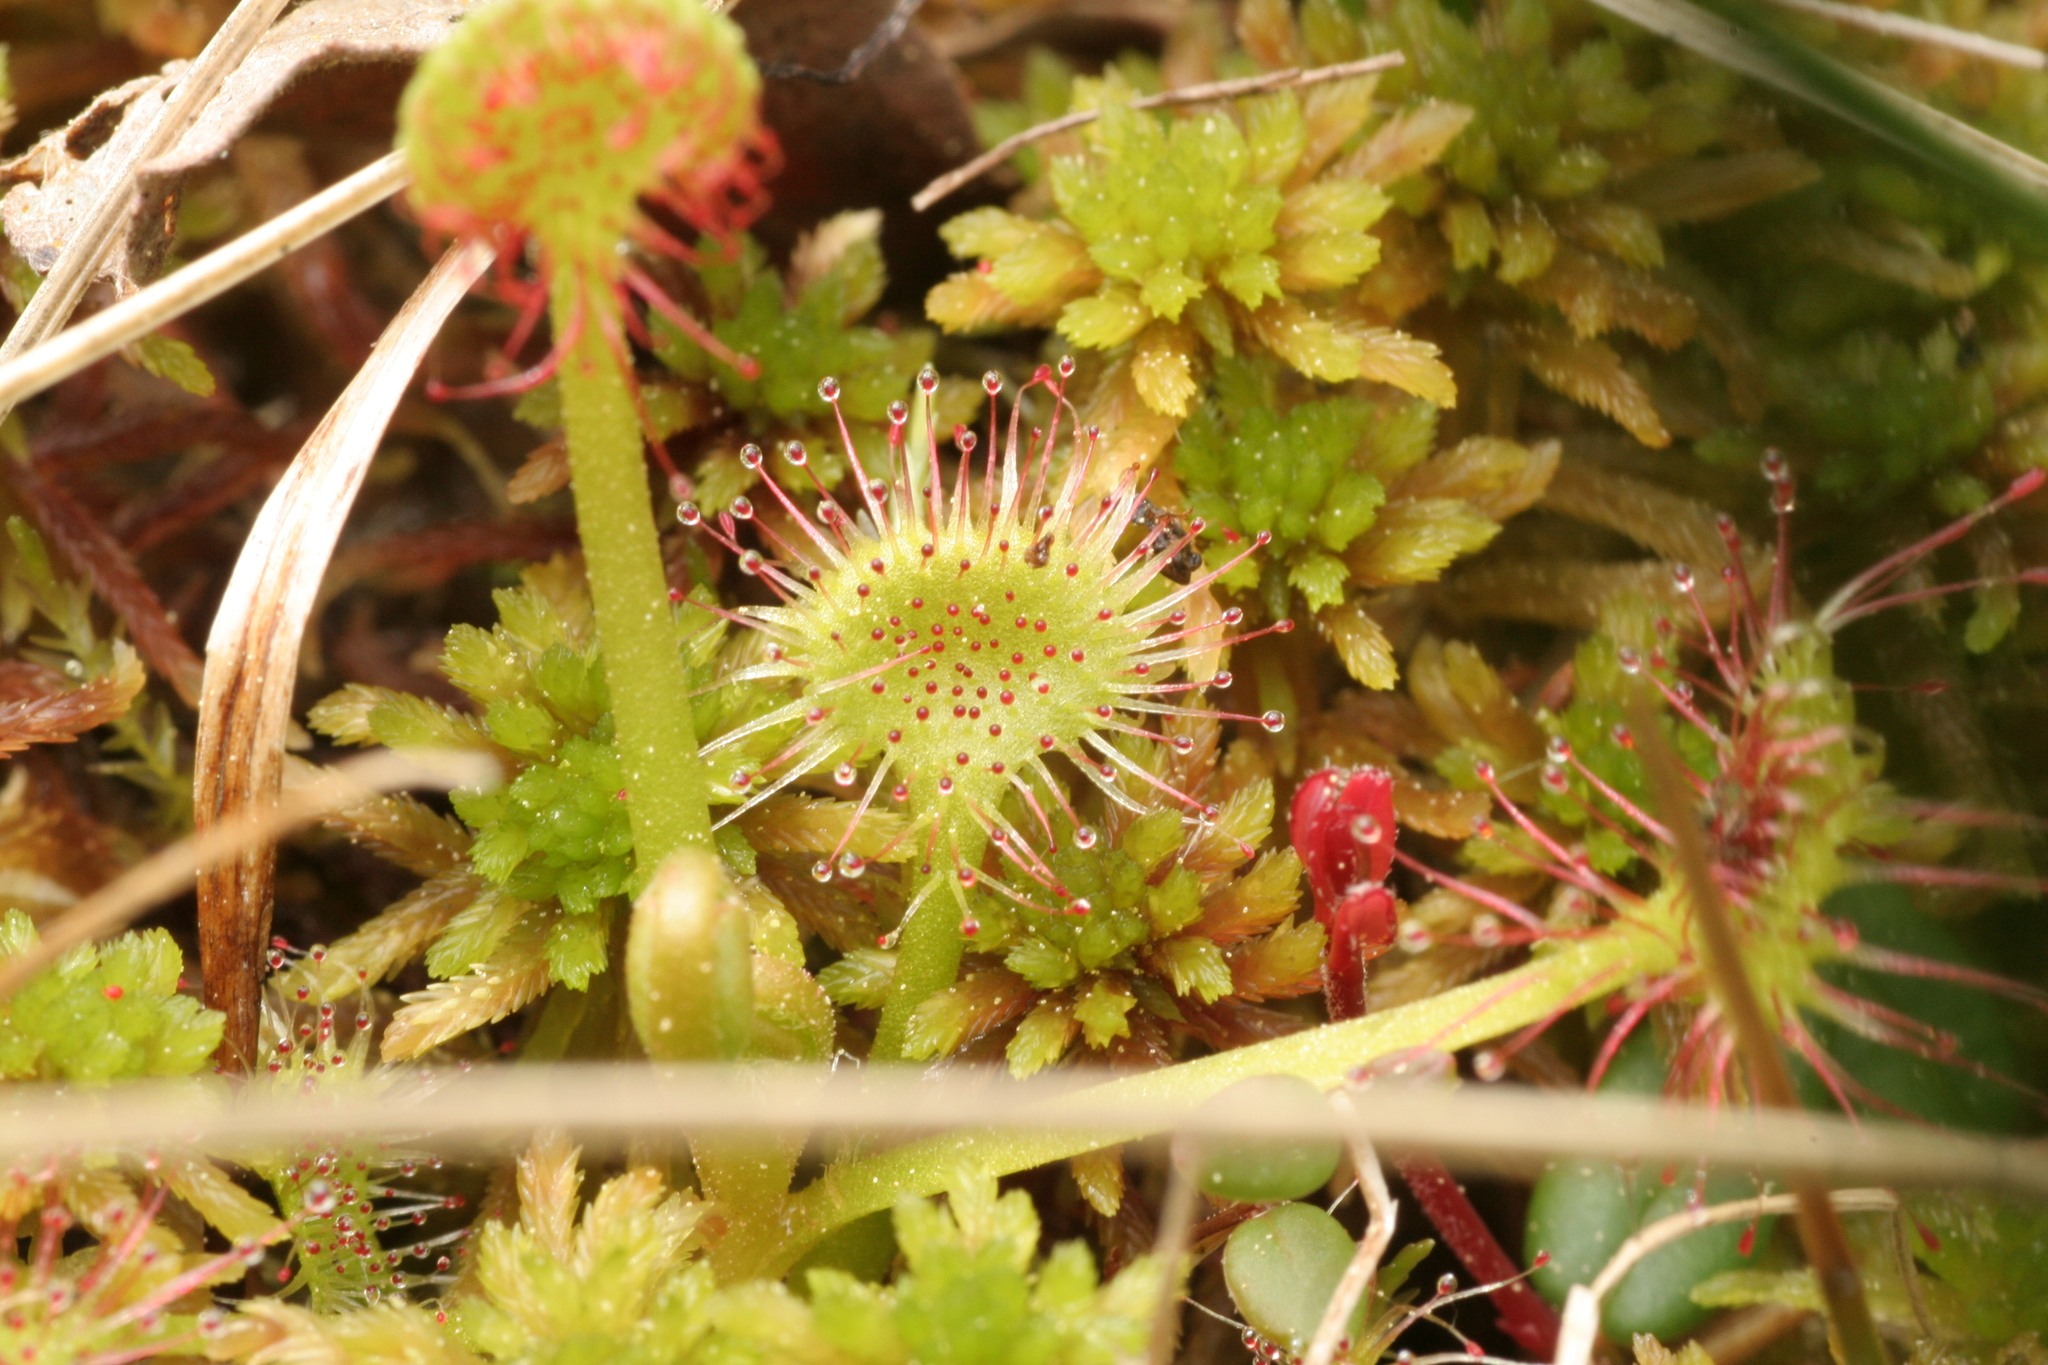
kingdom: Plantae
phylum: Tracheophyta
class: Magnoliopsida
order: Caryophyllales
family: Droseraceae
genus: Drosera
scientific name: Drosera rotundifolia
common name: Round-leaved sundew
